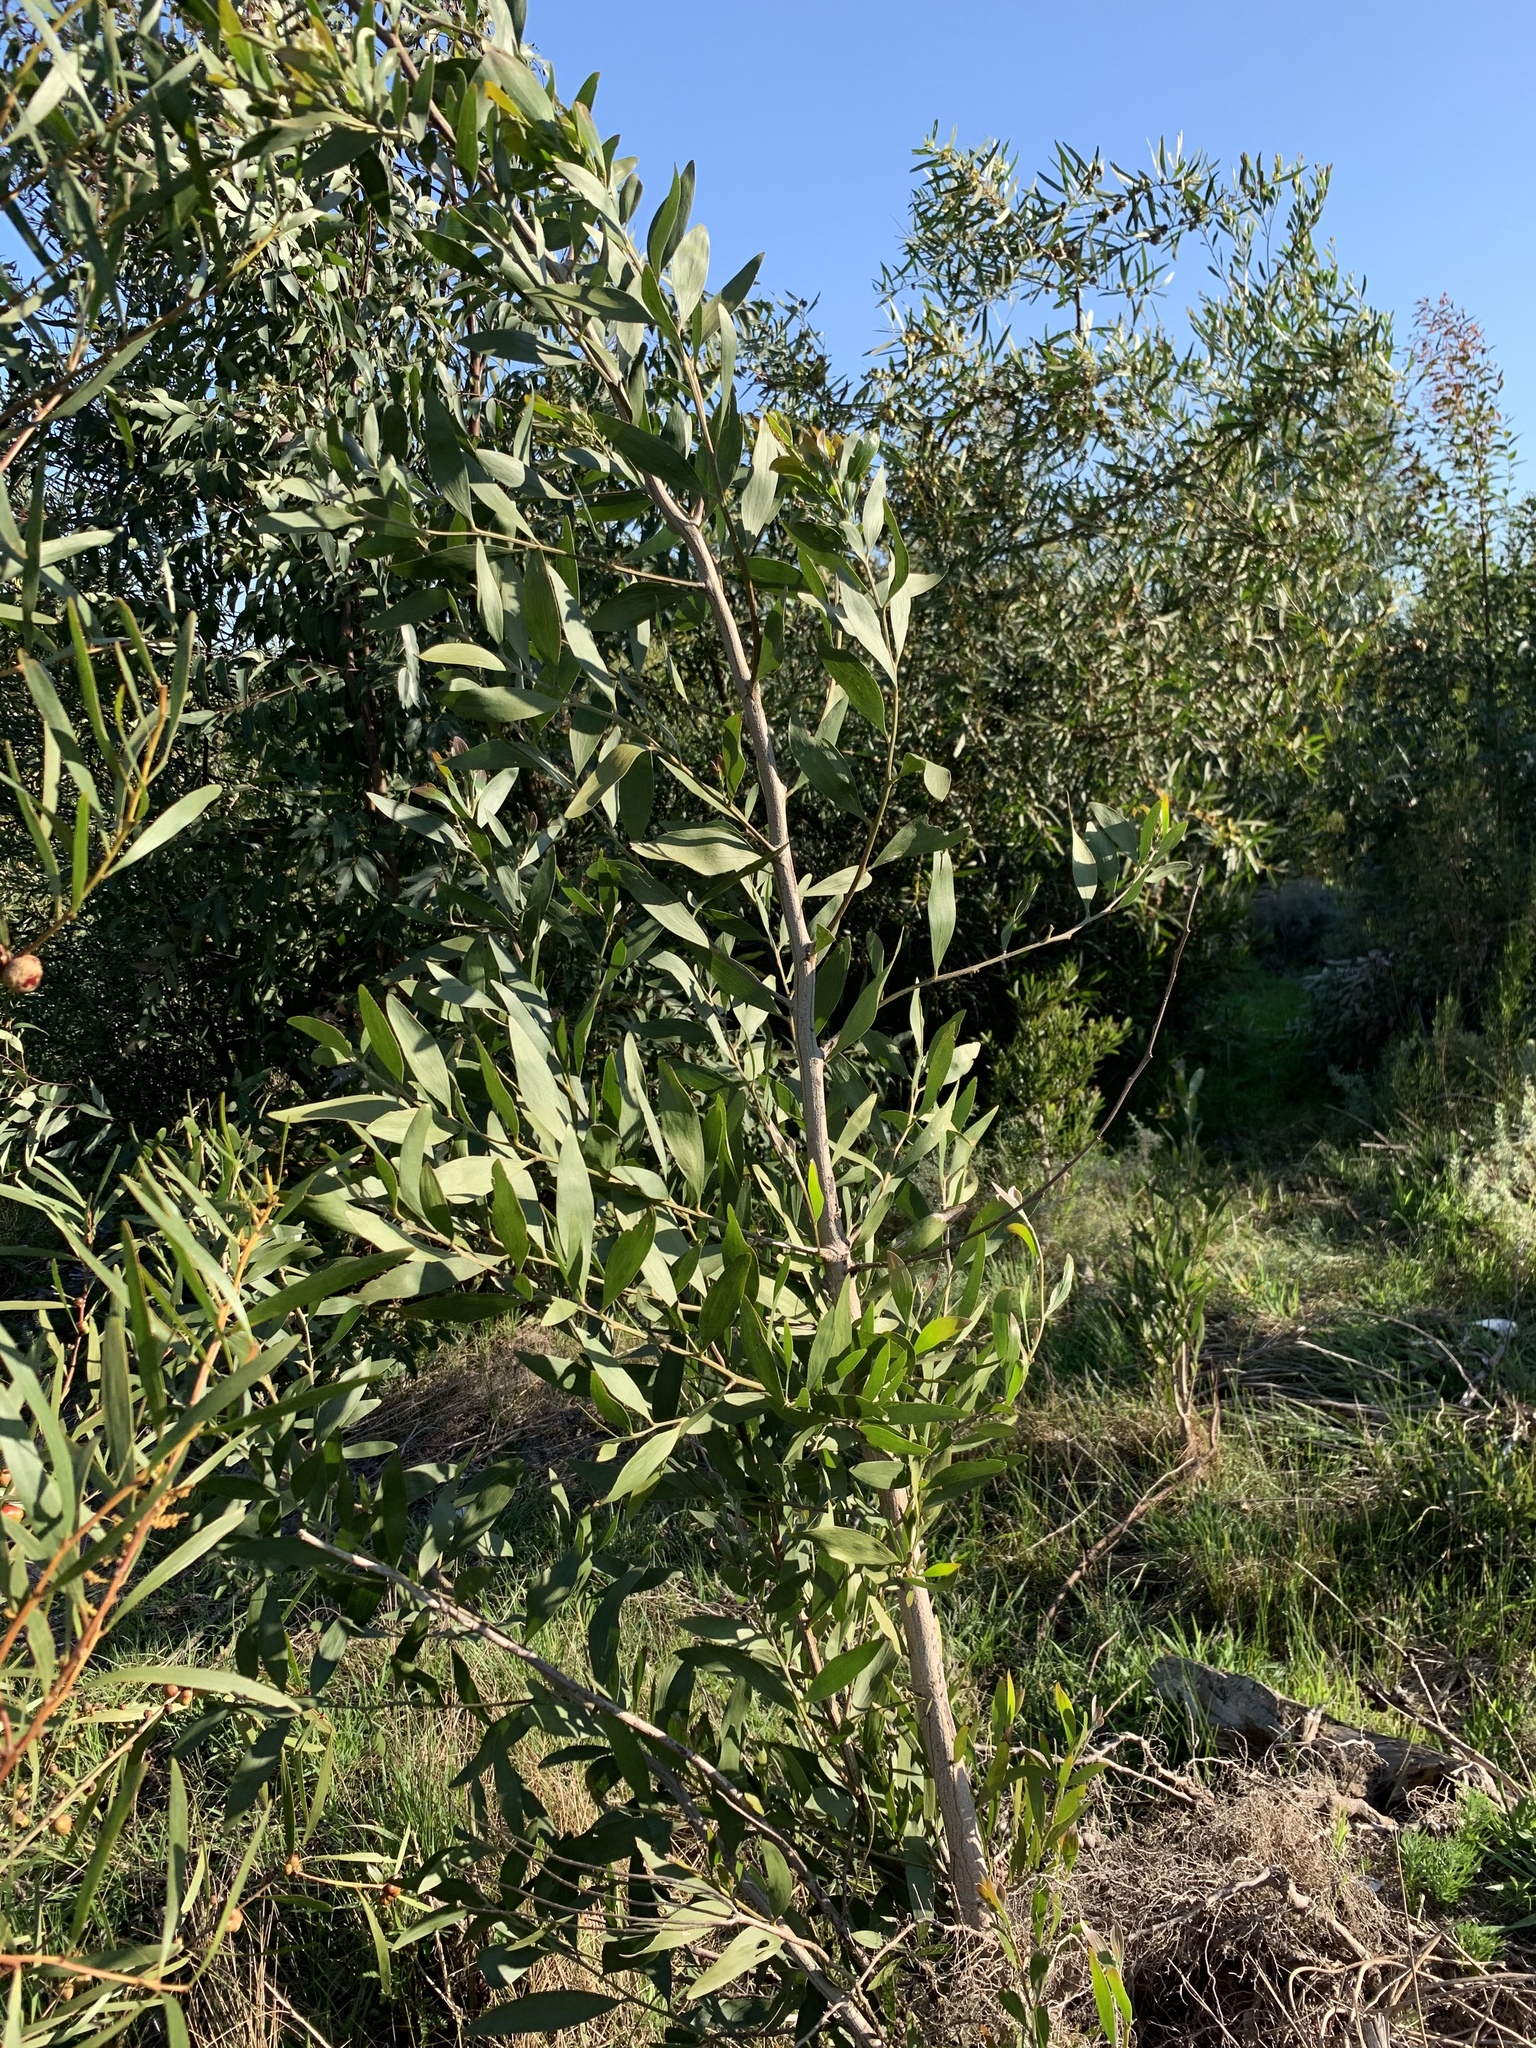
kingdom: Plantae
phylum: Tracheophyta
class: Magnoliopsida
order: Fabales
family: Fabaceae
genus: Acacia
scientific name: Acacia melanoxylon
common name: Blackwood
